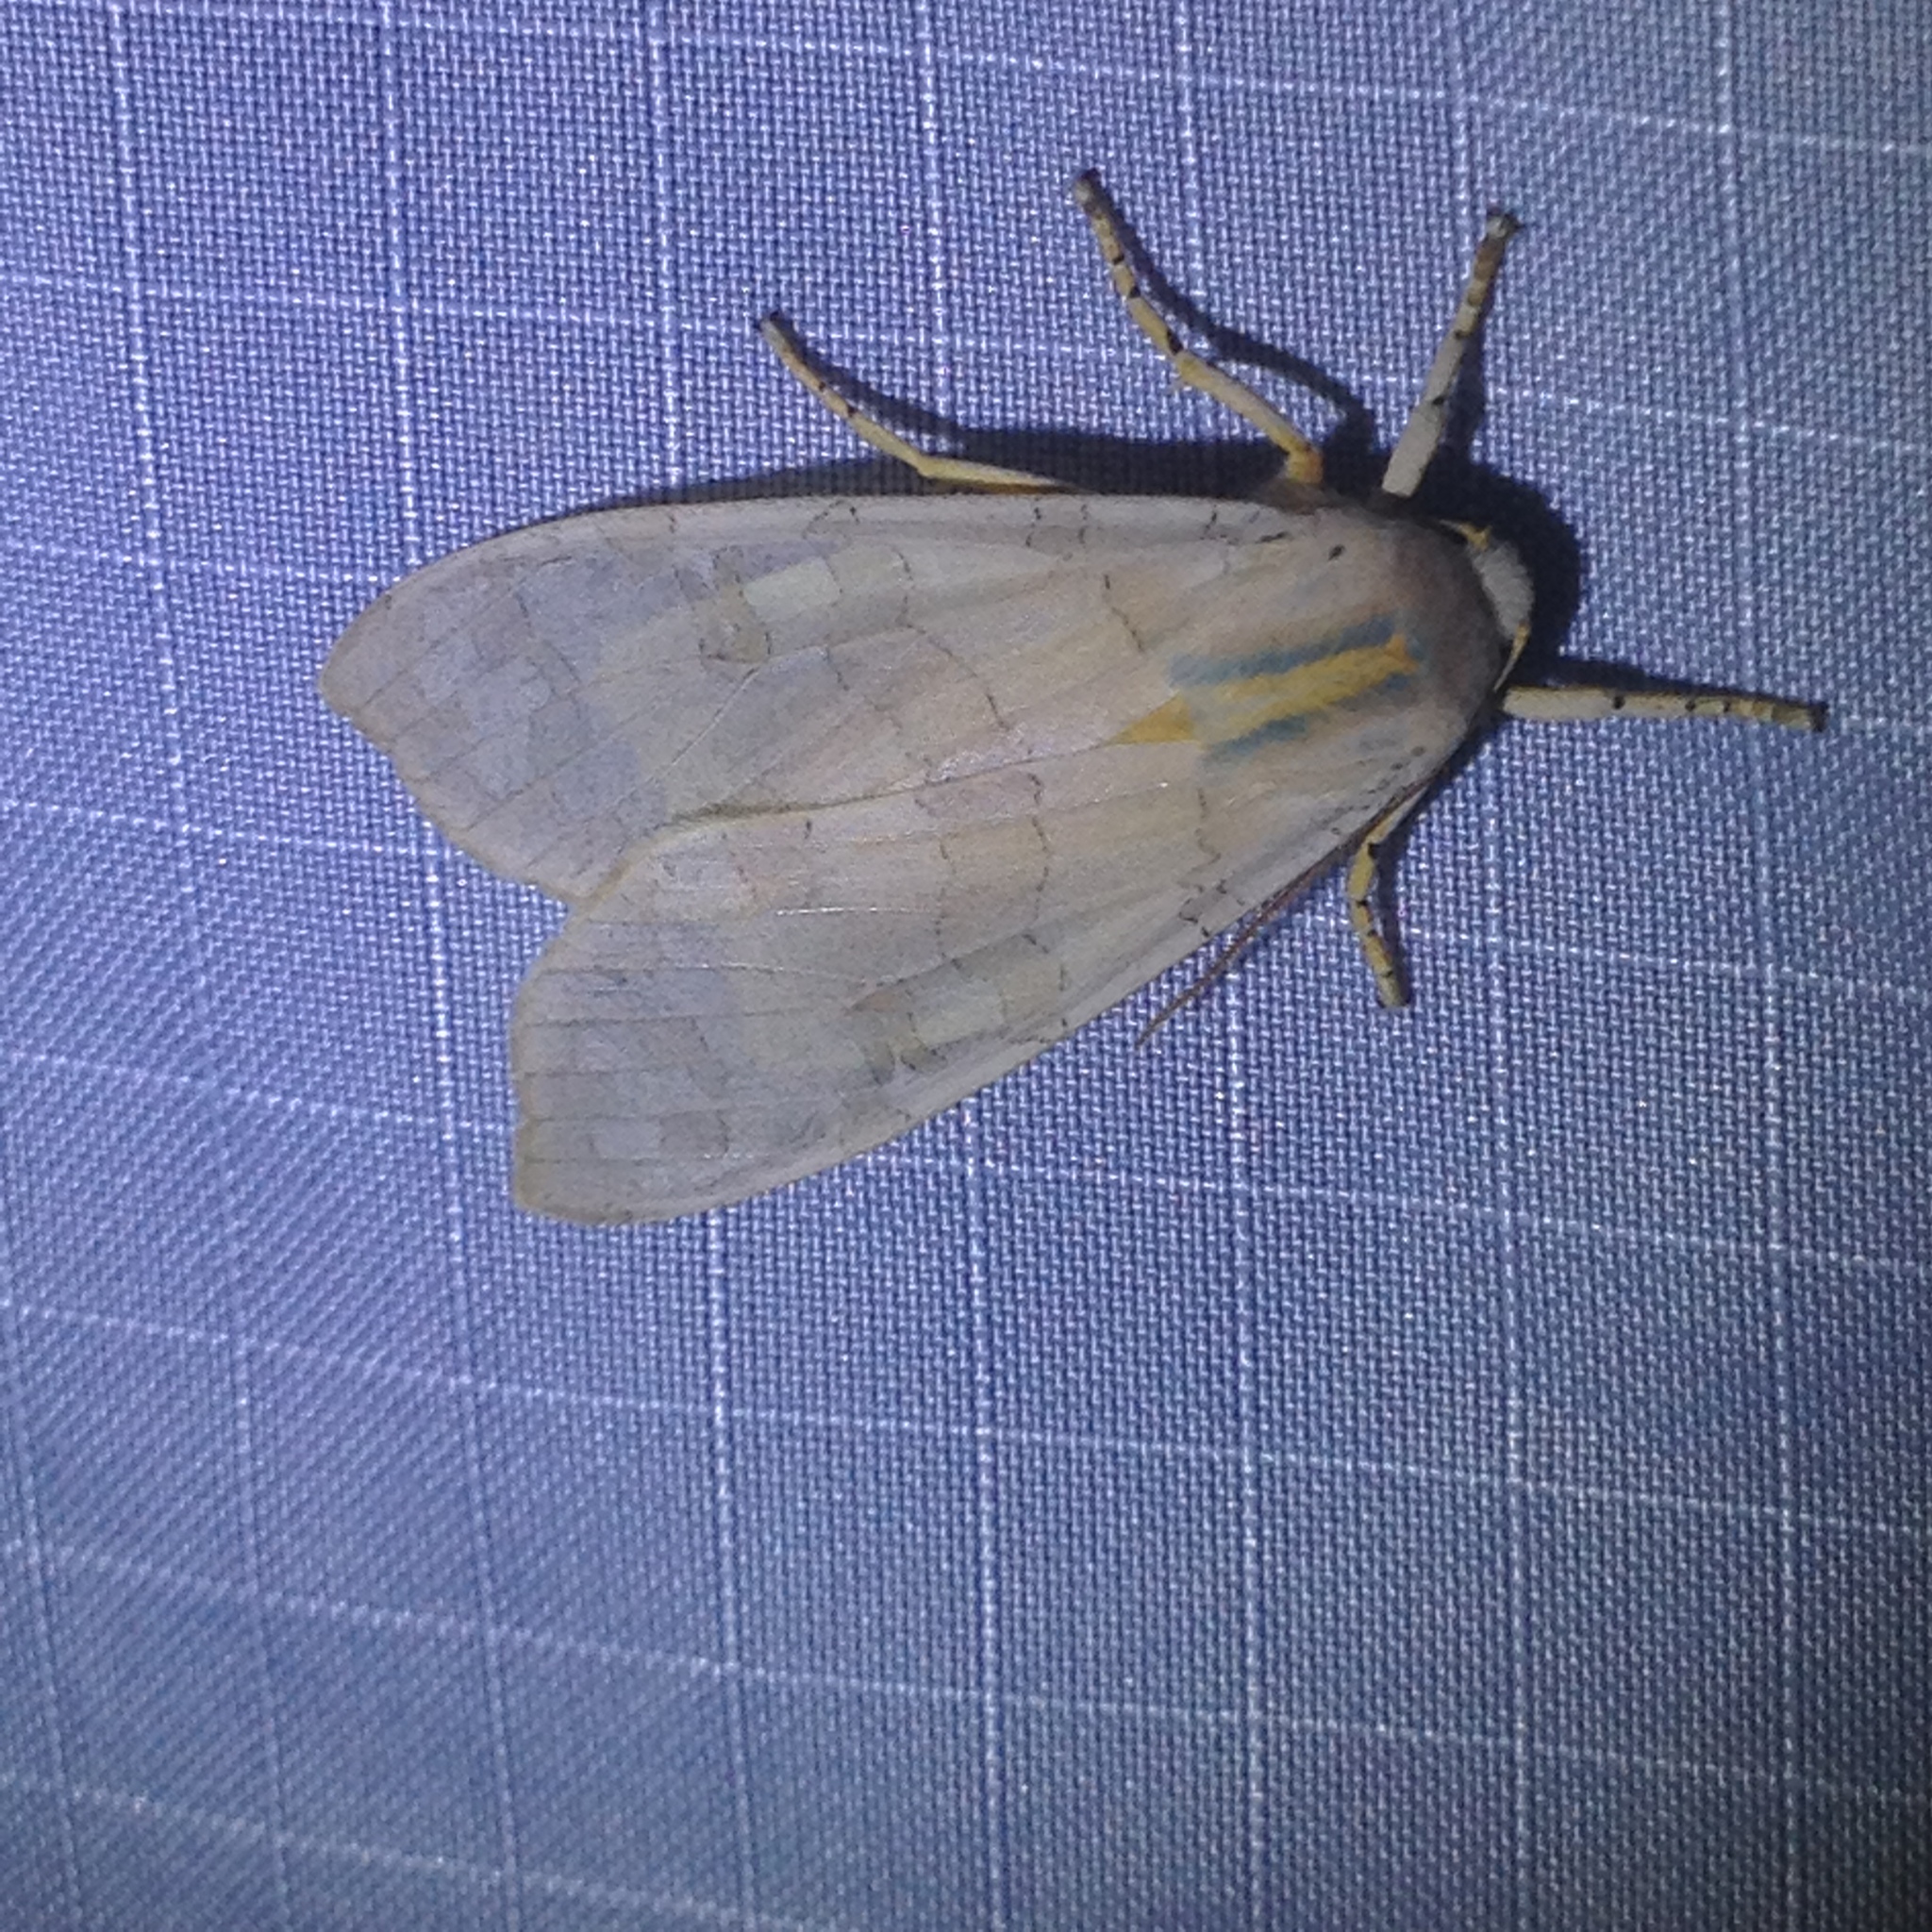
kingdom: Animalia
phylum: Arthropoda
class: Insecta
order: Lepidoptera
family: Erebidae
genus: Halysidota
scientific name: Halysidota
